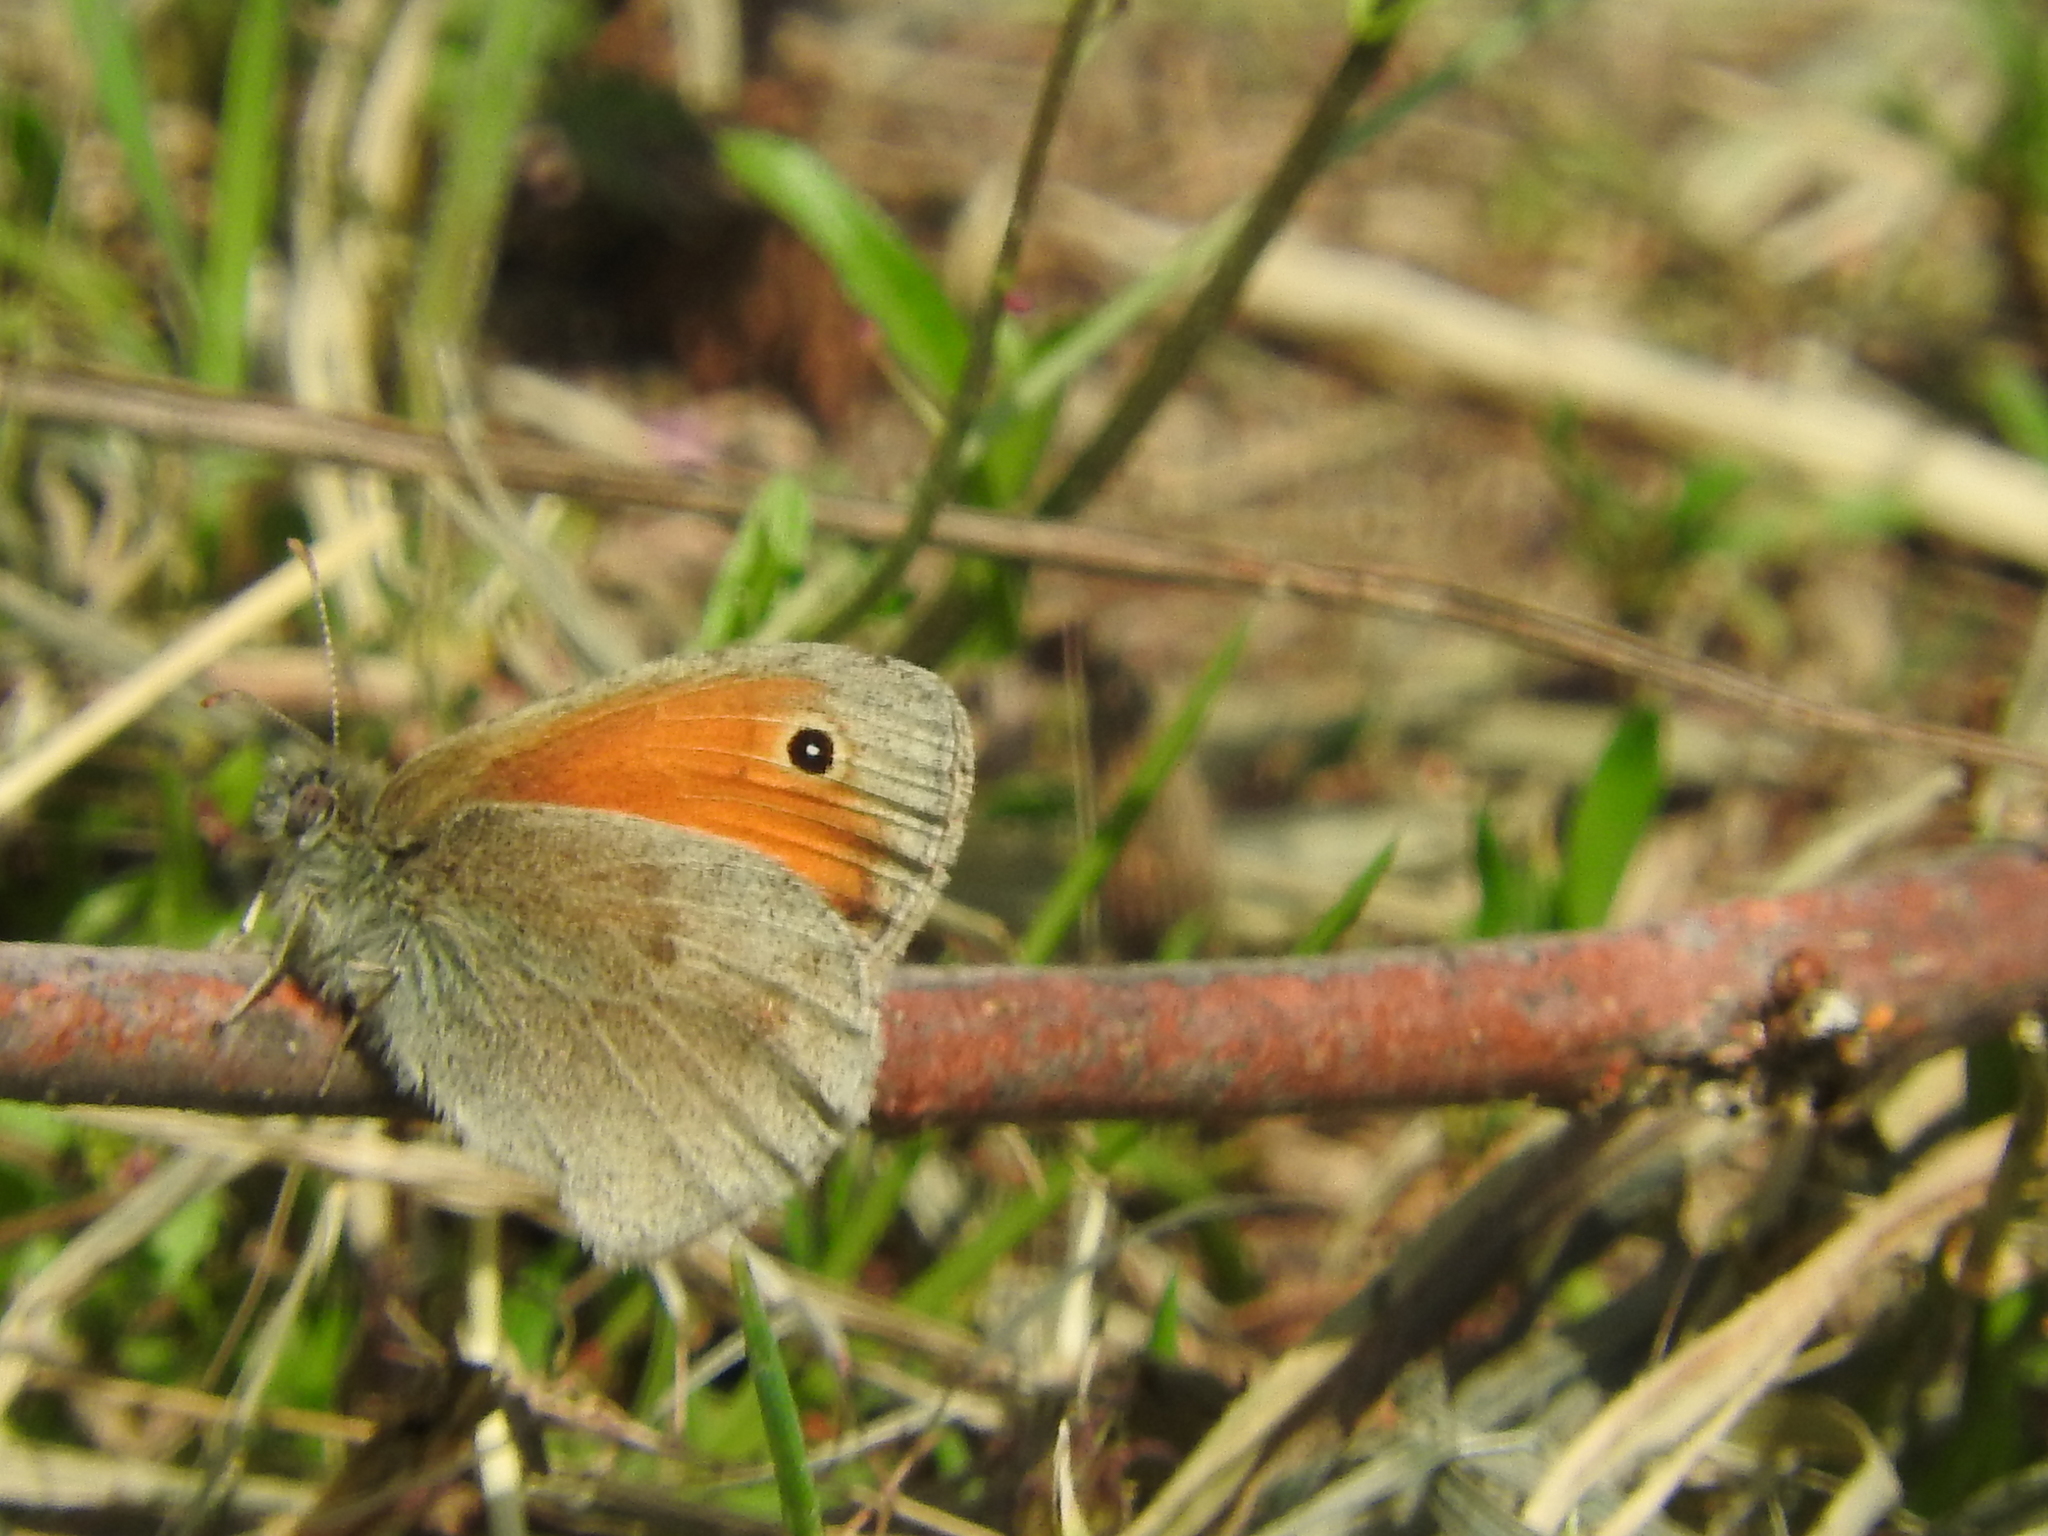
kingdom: Animalia
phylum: Arthropoda
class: Insecta
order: Lepidoptera
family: Nymphalidae
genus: Coenonympha
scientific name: Coenonympha pamphilus
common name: Small heath
